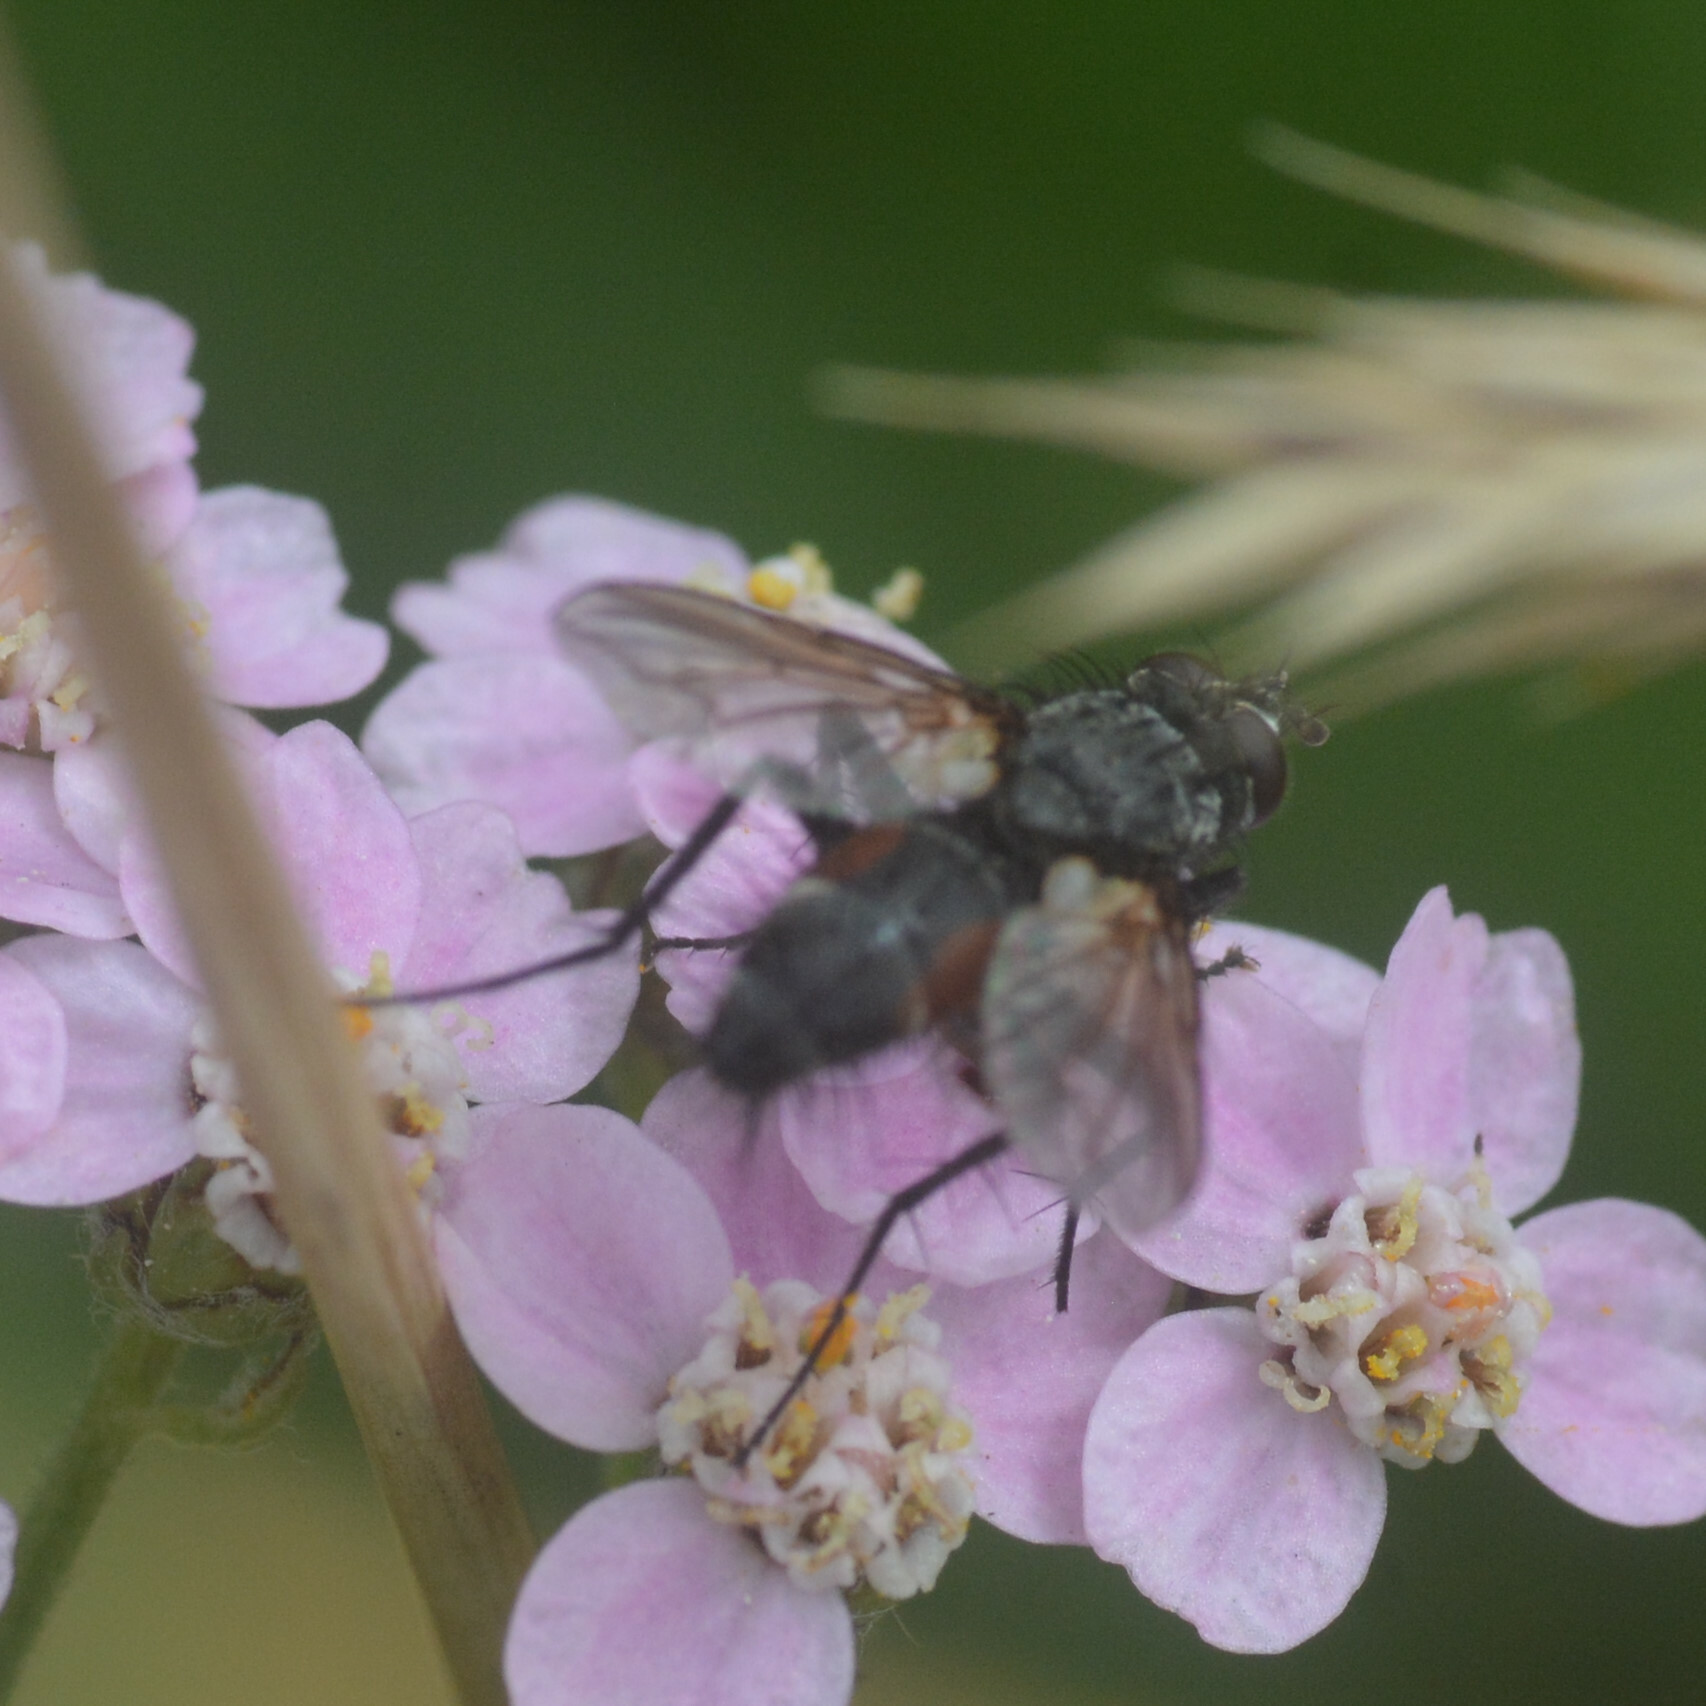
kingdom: Animalia
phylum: Arthropoda
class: Insecta
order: Diptera
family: Tachinidae
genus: Eriothrix
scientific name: Eriothrix rufomaculatus
